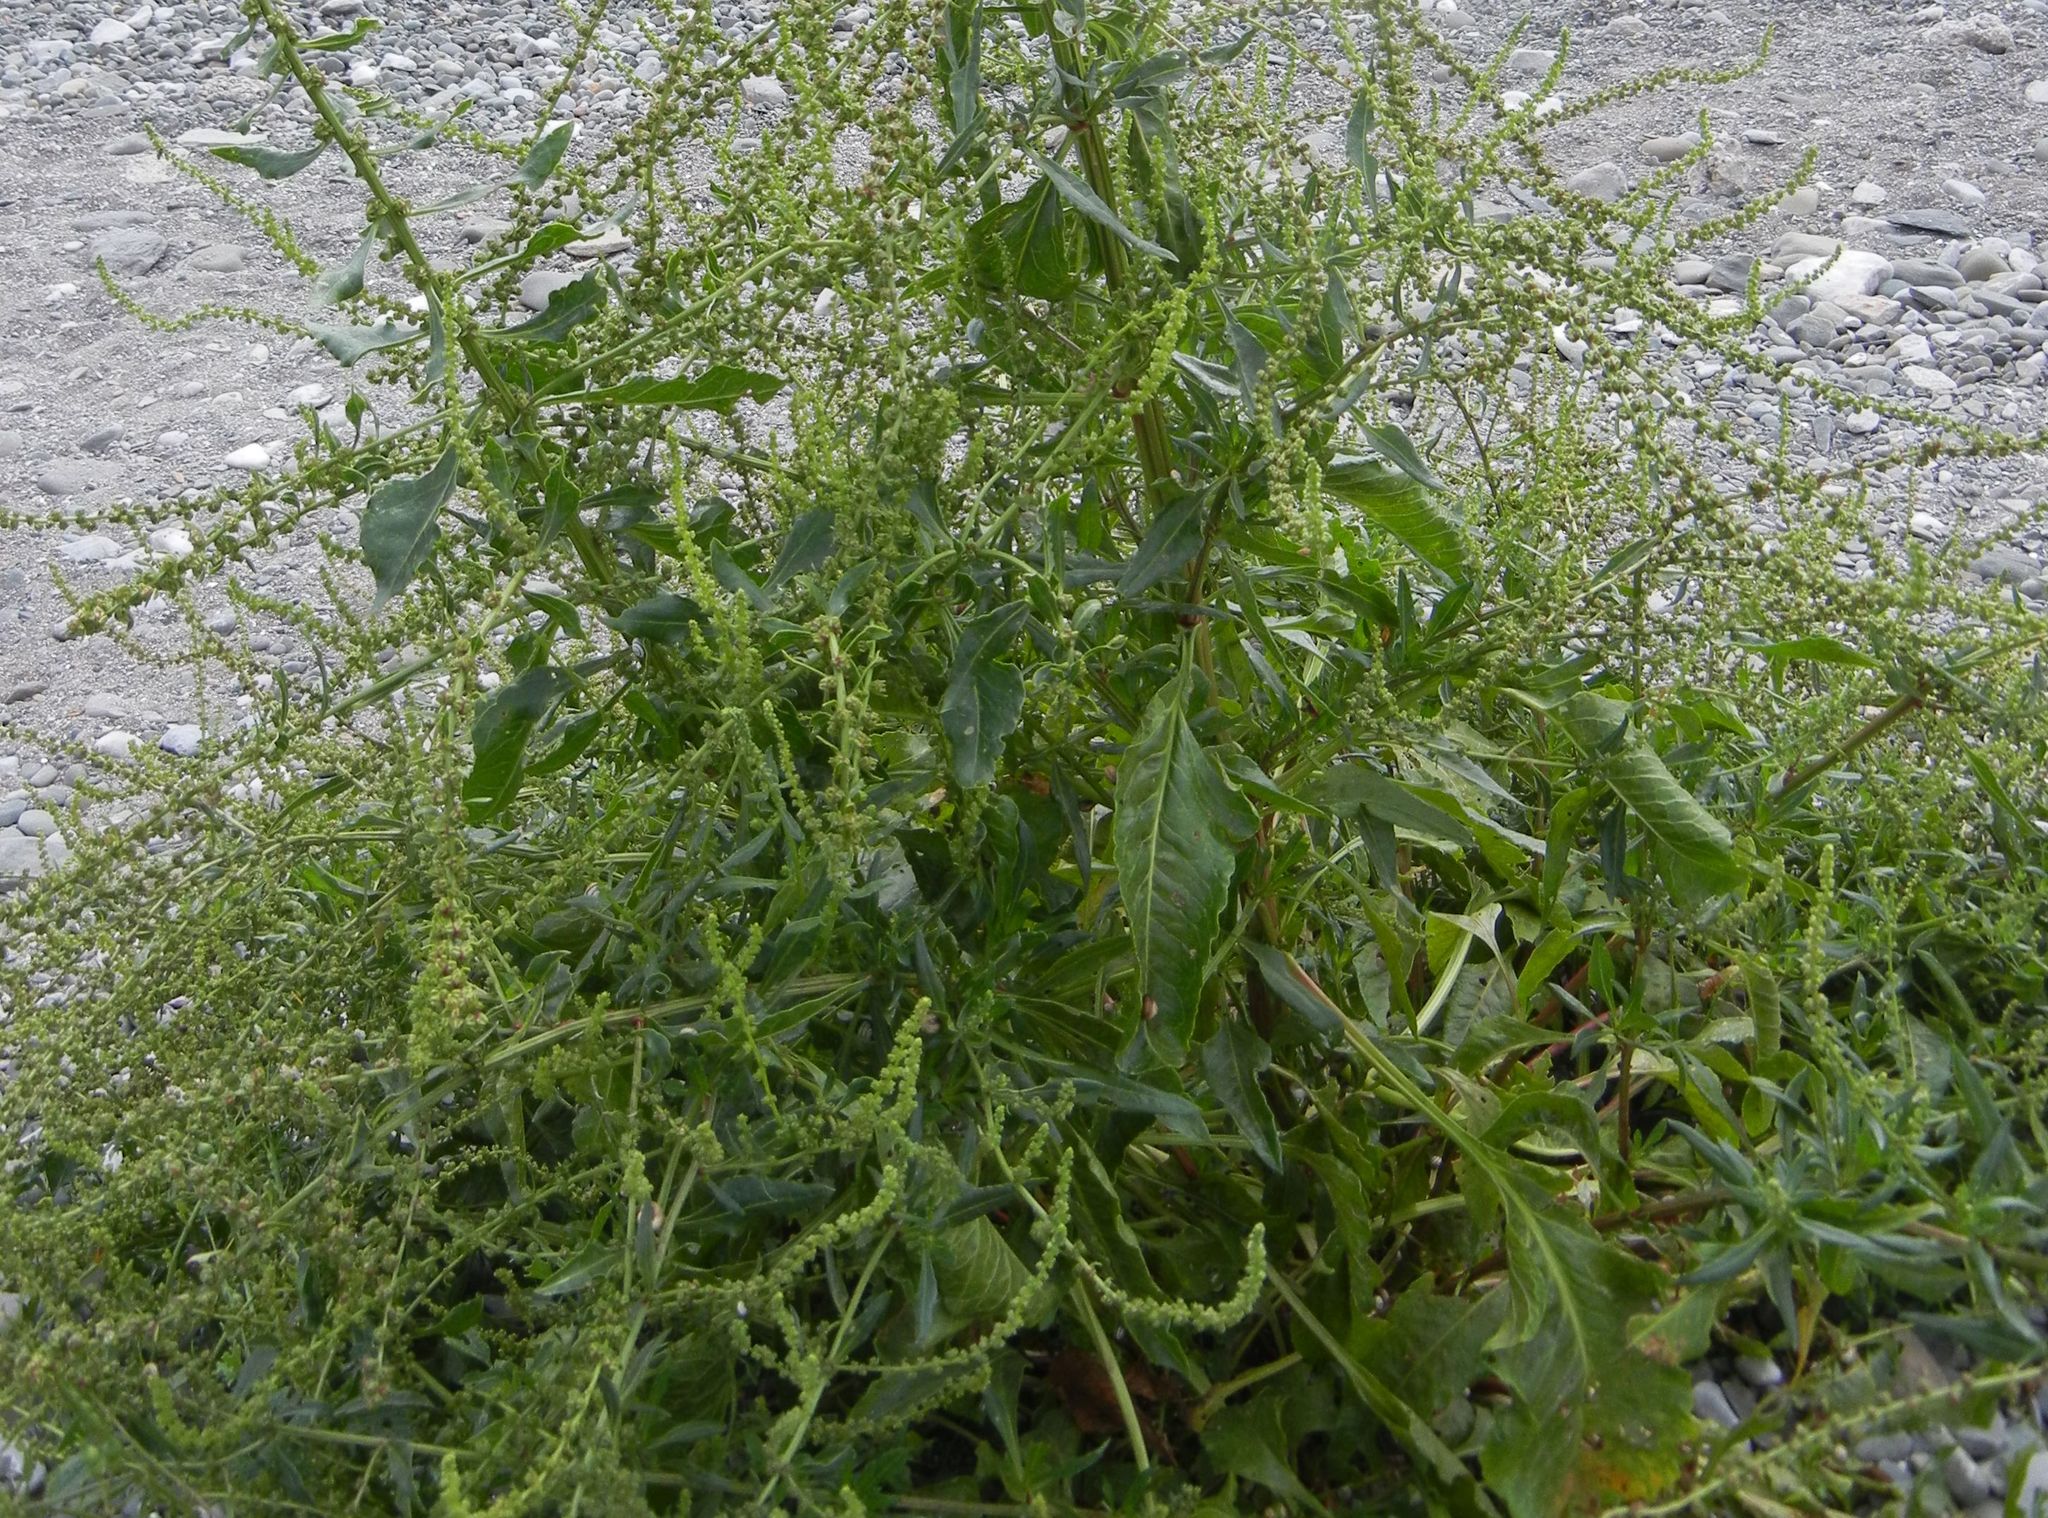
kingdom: Plantae
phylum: Tracheophyta
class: Magnoliopsida
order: Caryophyllales
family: Amaranthaceae
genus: Beta
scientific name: Beta vulgaris
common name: Beet
